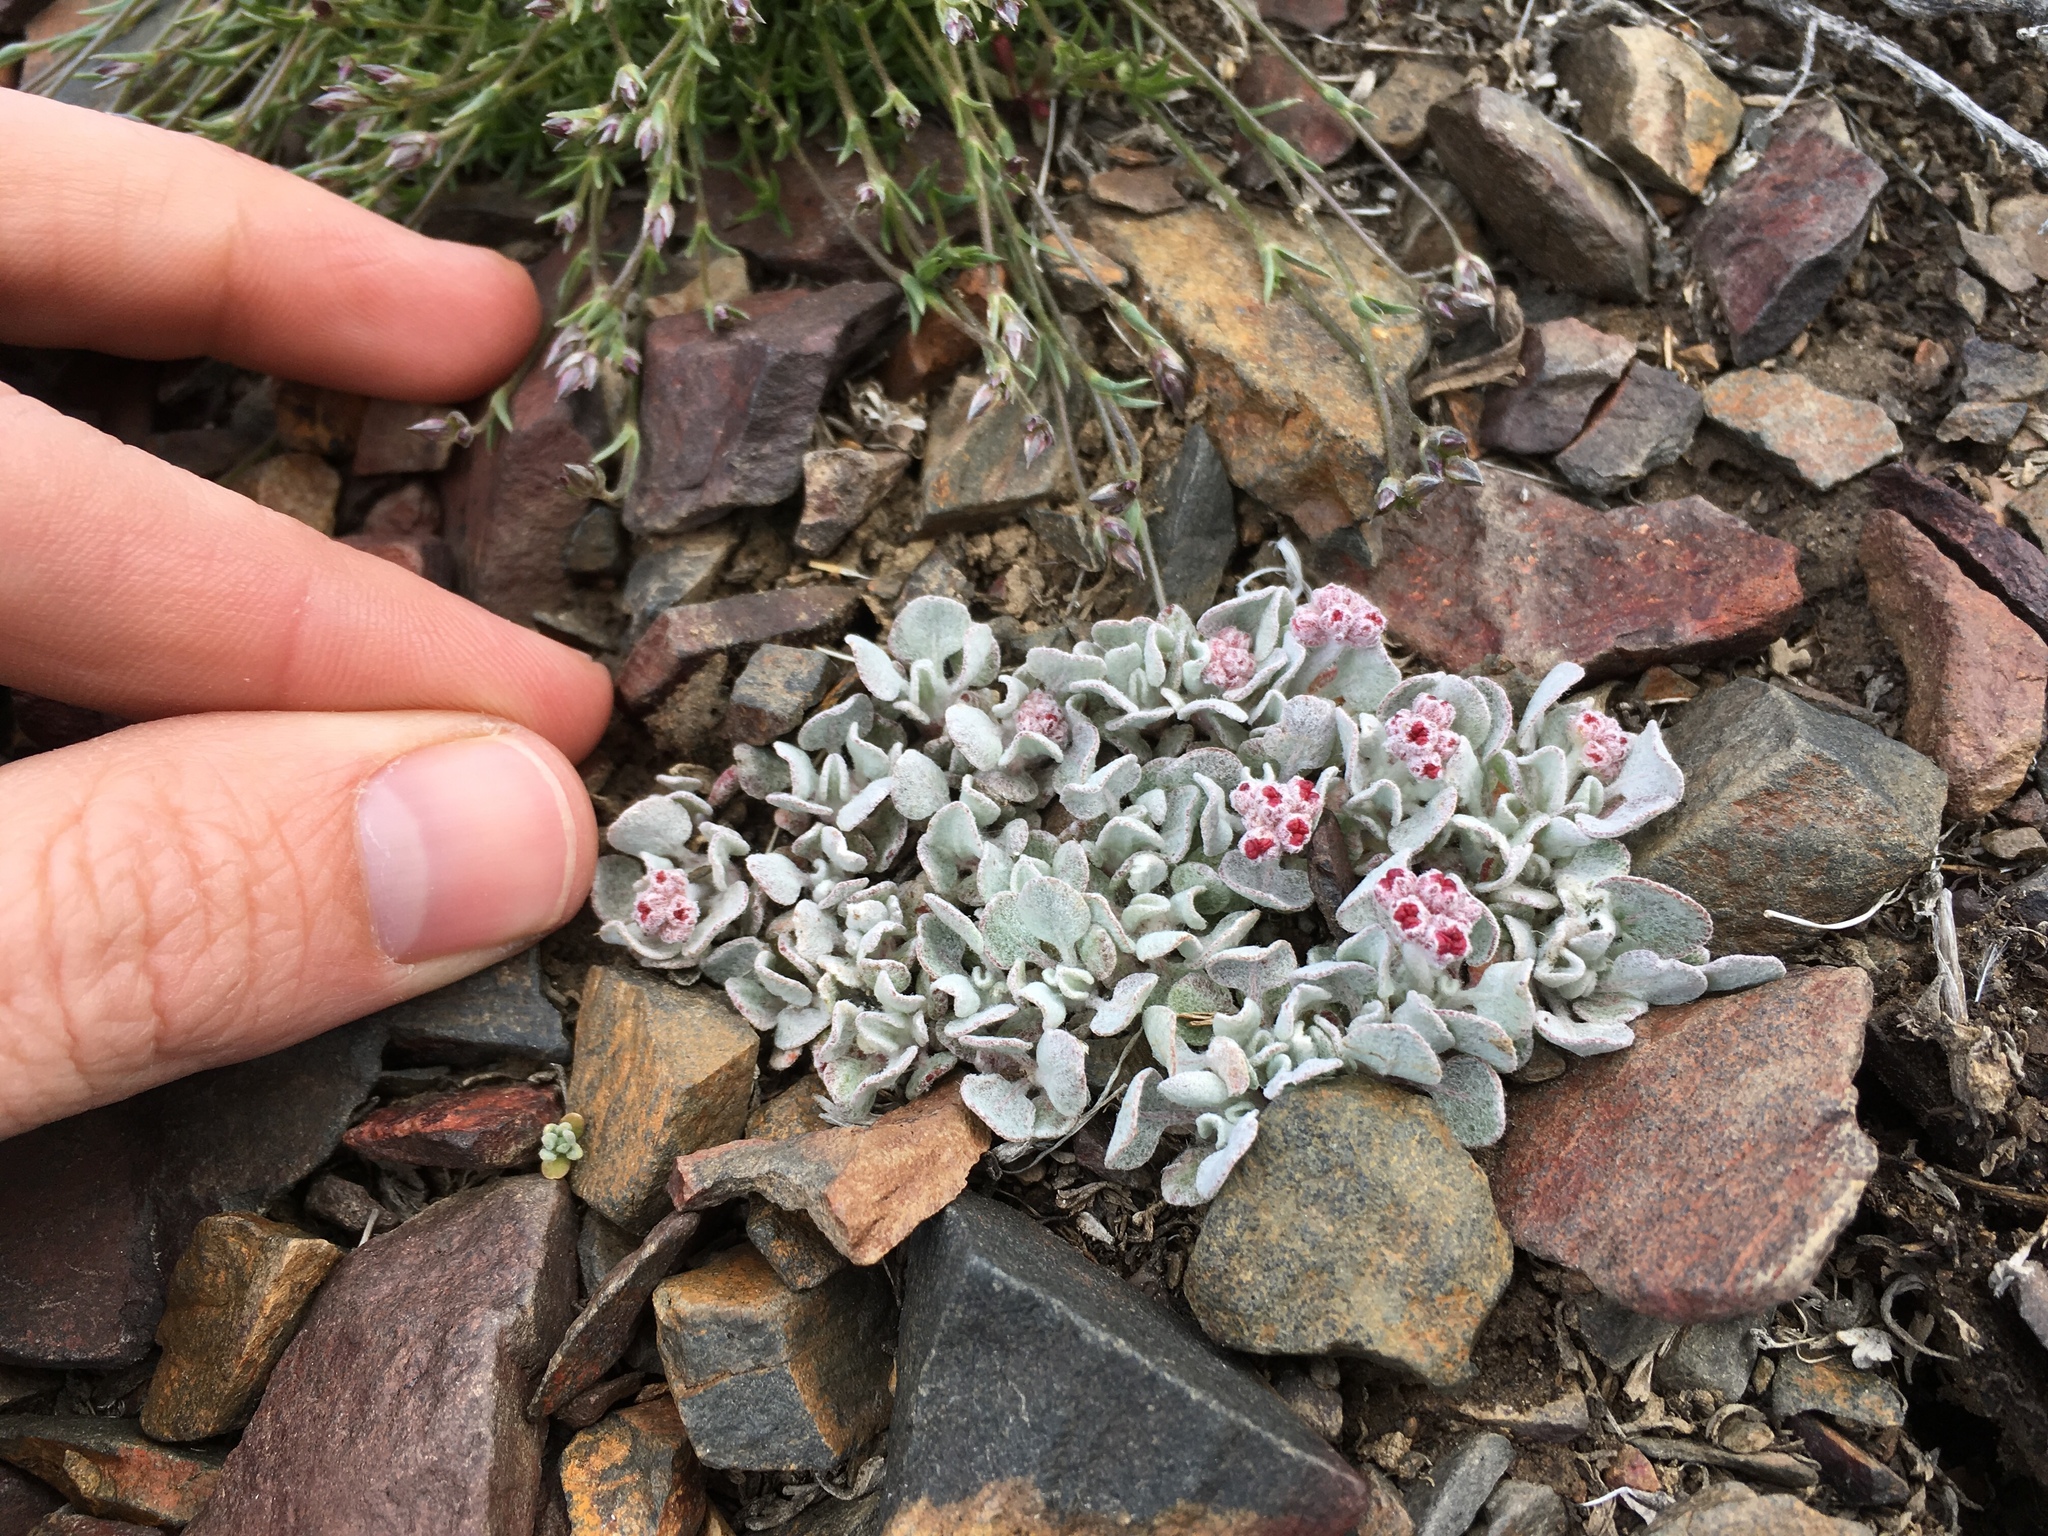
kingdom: Plantae
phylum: Tracheophyta
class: Magnoliopsida
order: Caryophyllales
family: Polygonaceae
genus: Eriogonum
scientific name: Eriogonum ovalifolium
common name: Cushion buckwheat
